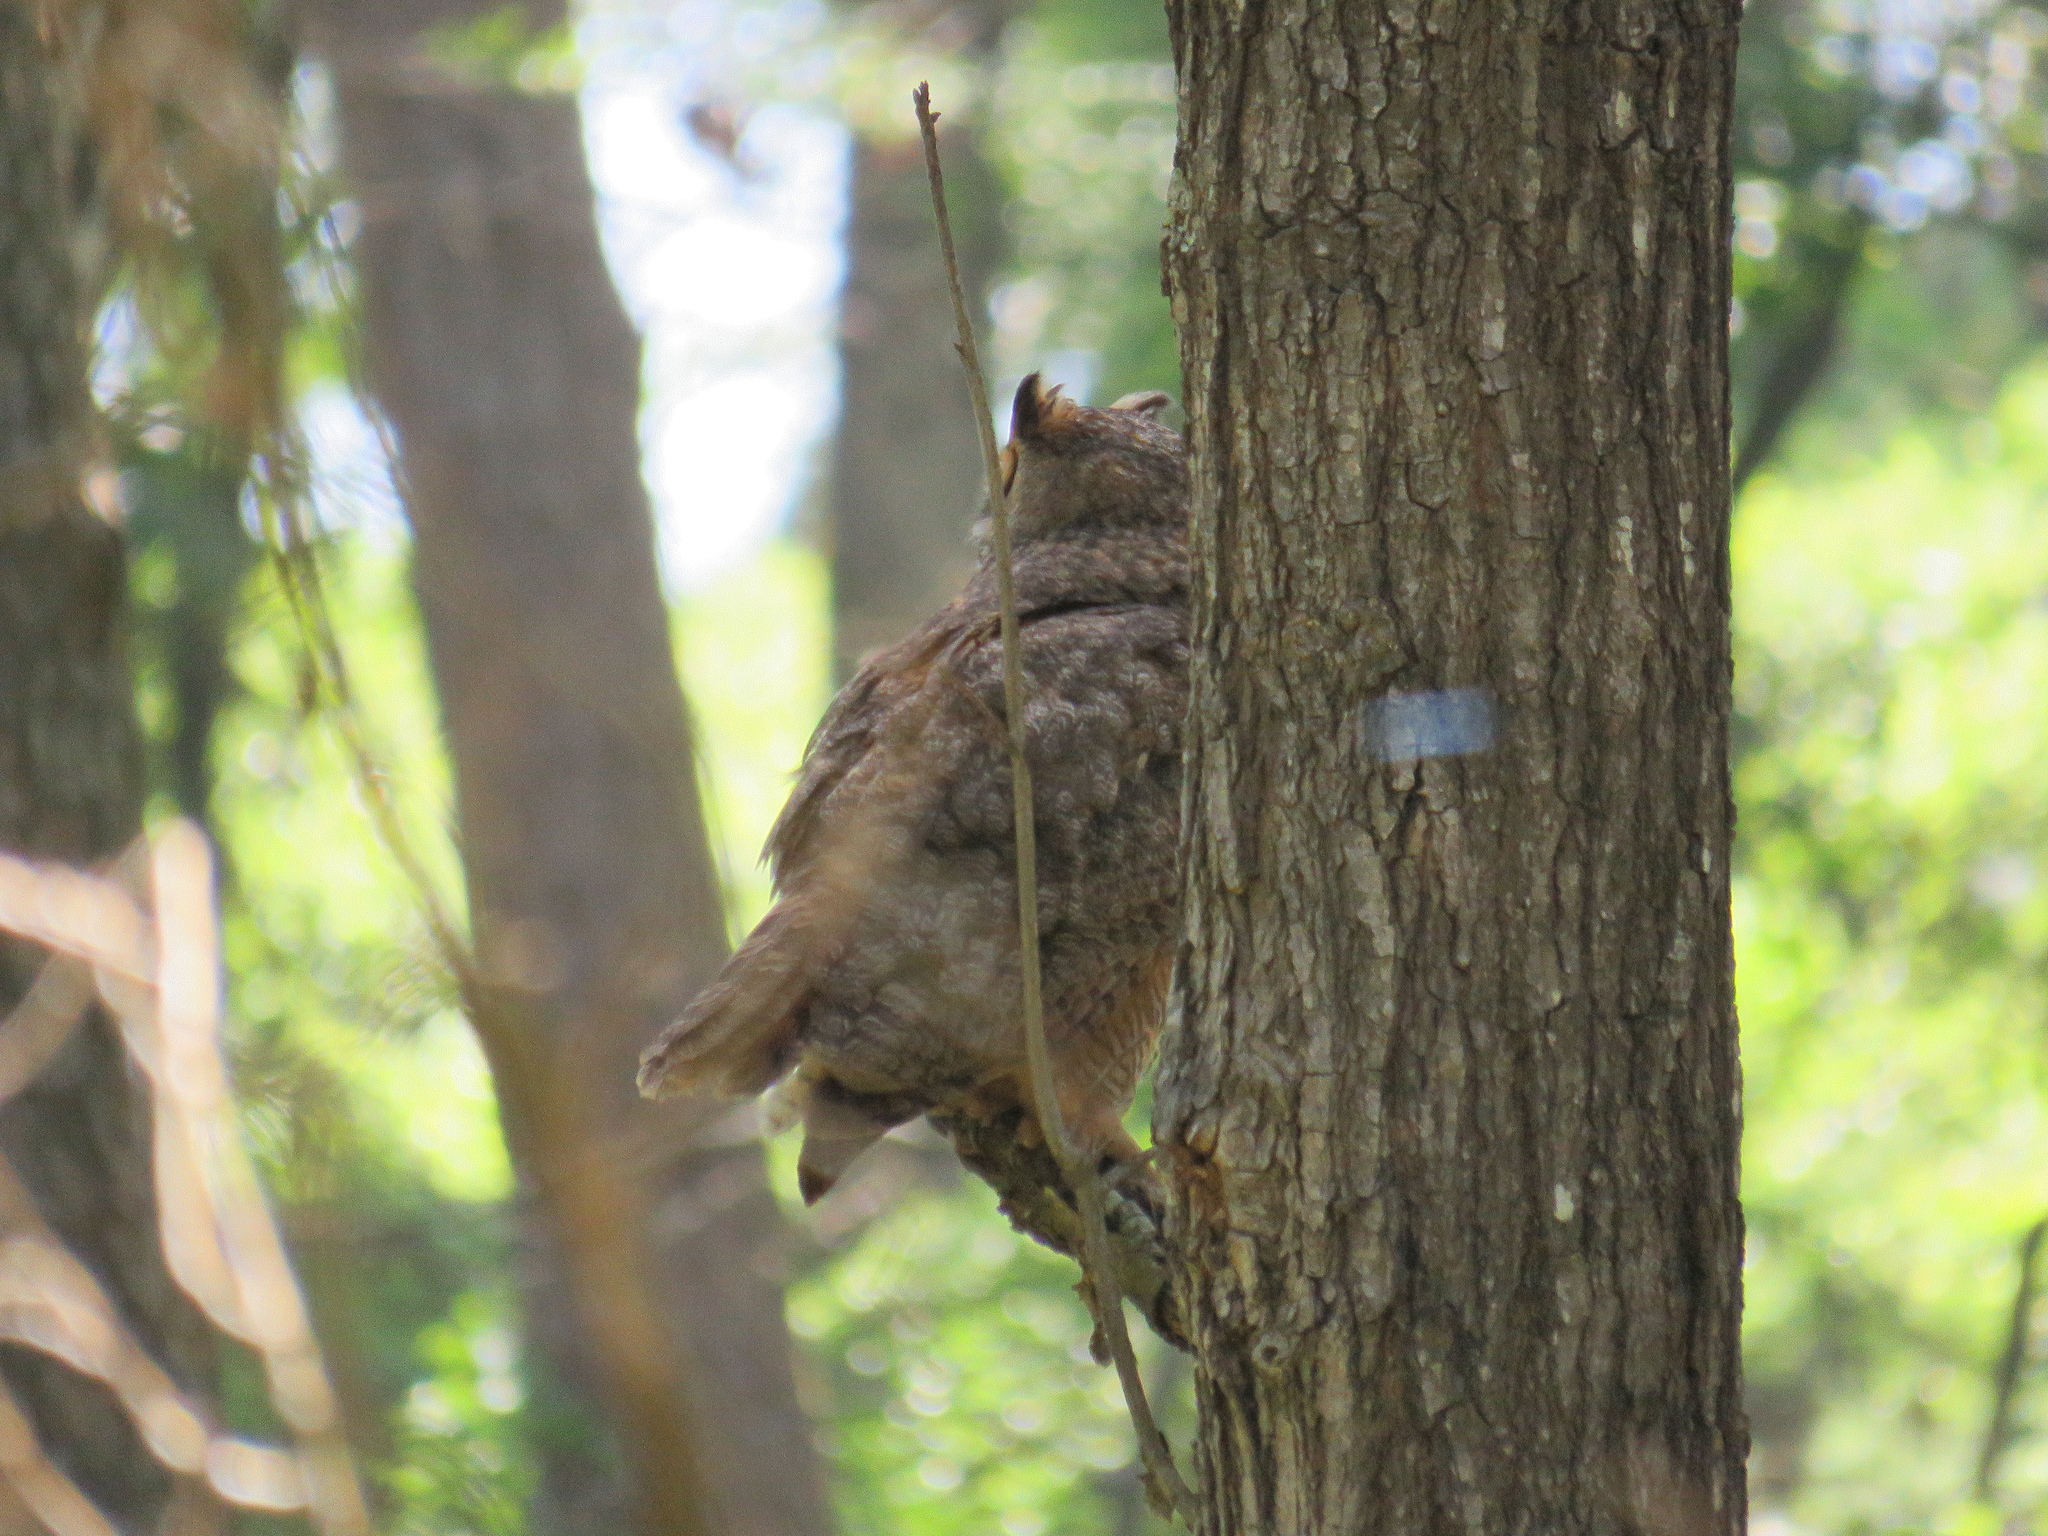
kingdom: Animalia
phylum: Chordata
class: Aves
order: Strigiformes
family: Strigidae
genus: Bubo
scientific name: Bubo virginianus
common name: Great horned owl
